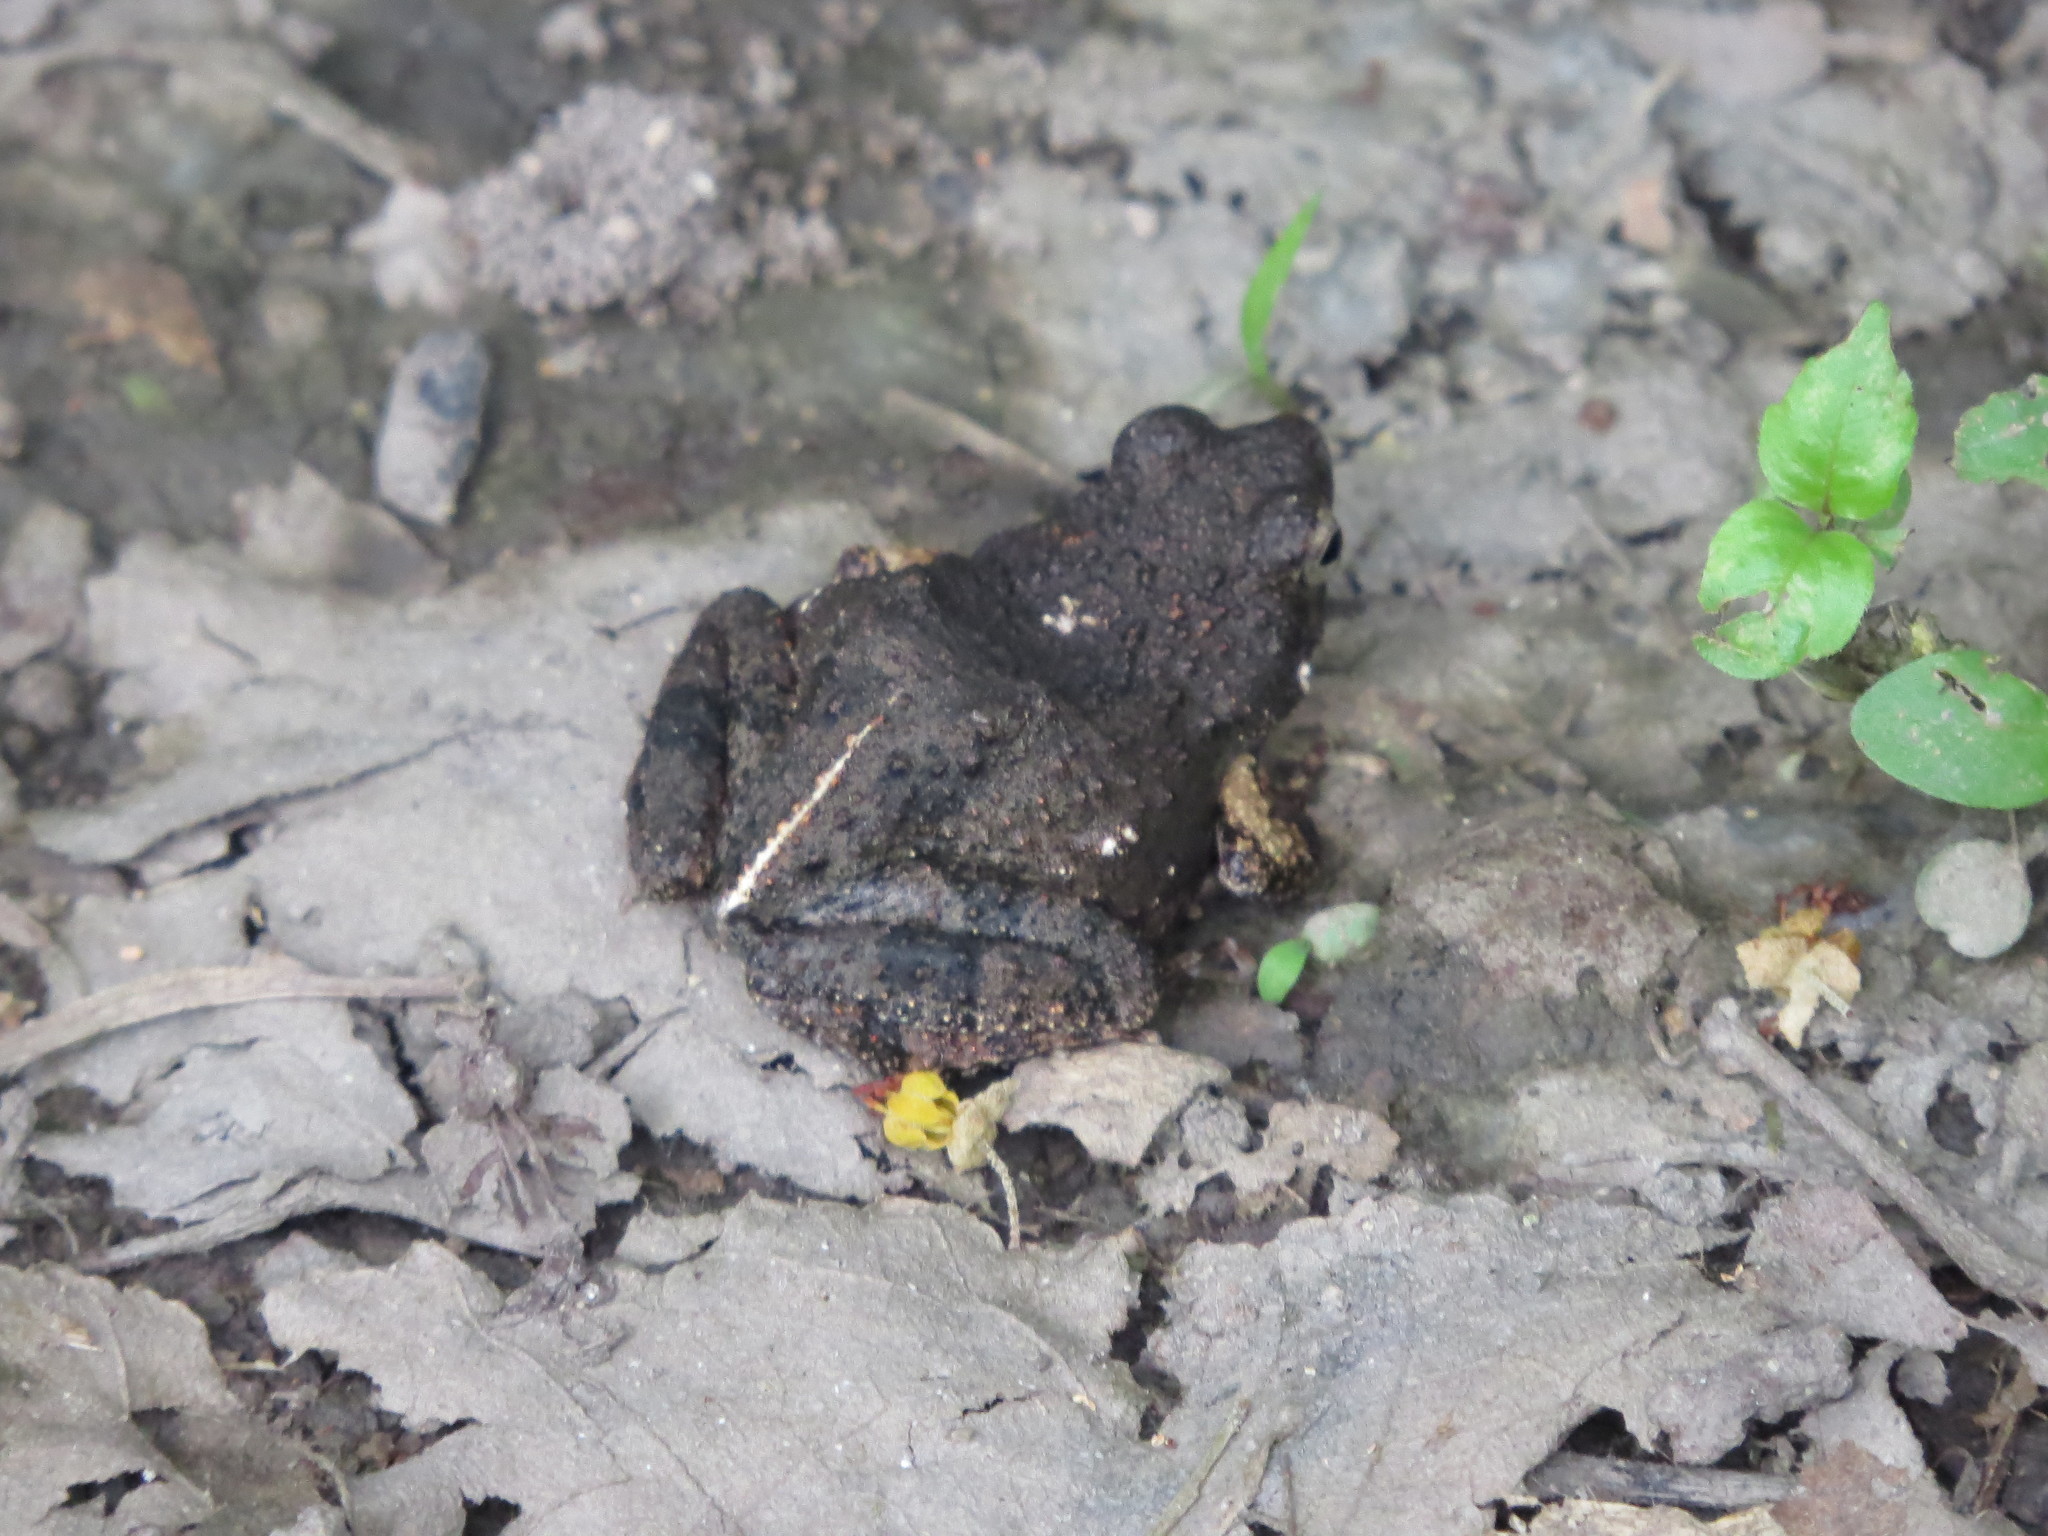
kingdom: Animalia
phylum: Chordata
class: Amphibia
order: Anura
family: Leptodactylidae
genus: Engystomops
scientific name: Engystomops pustulosus
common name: Tungara frog
